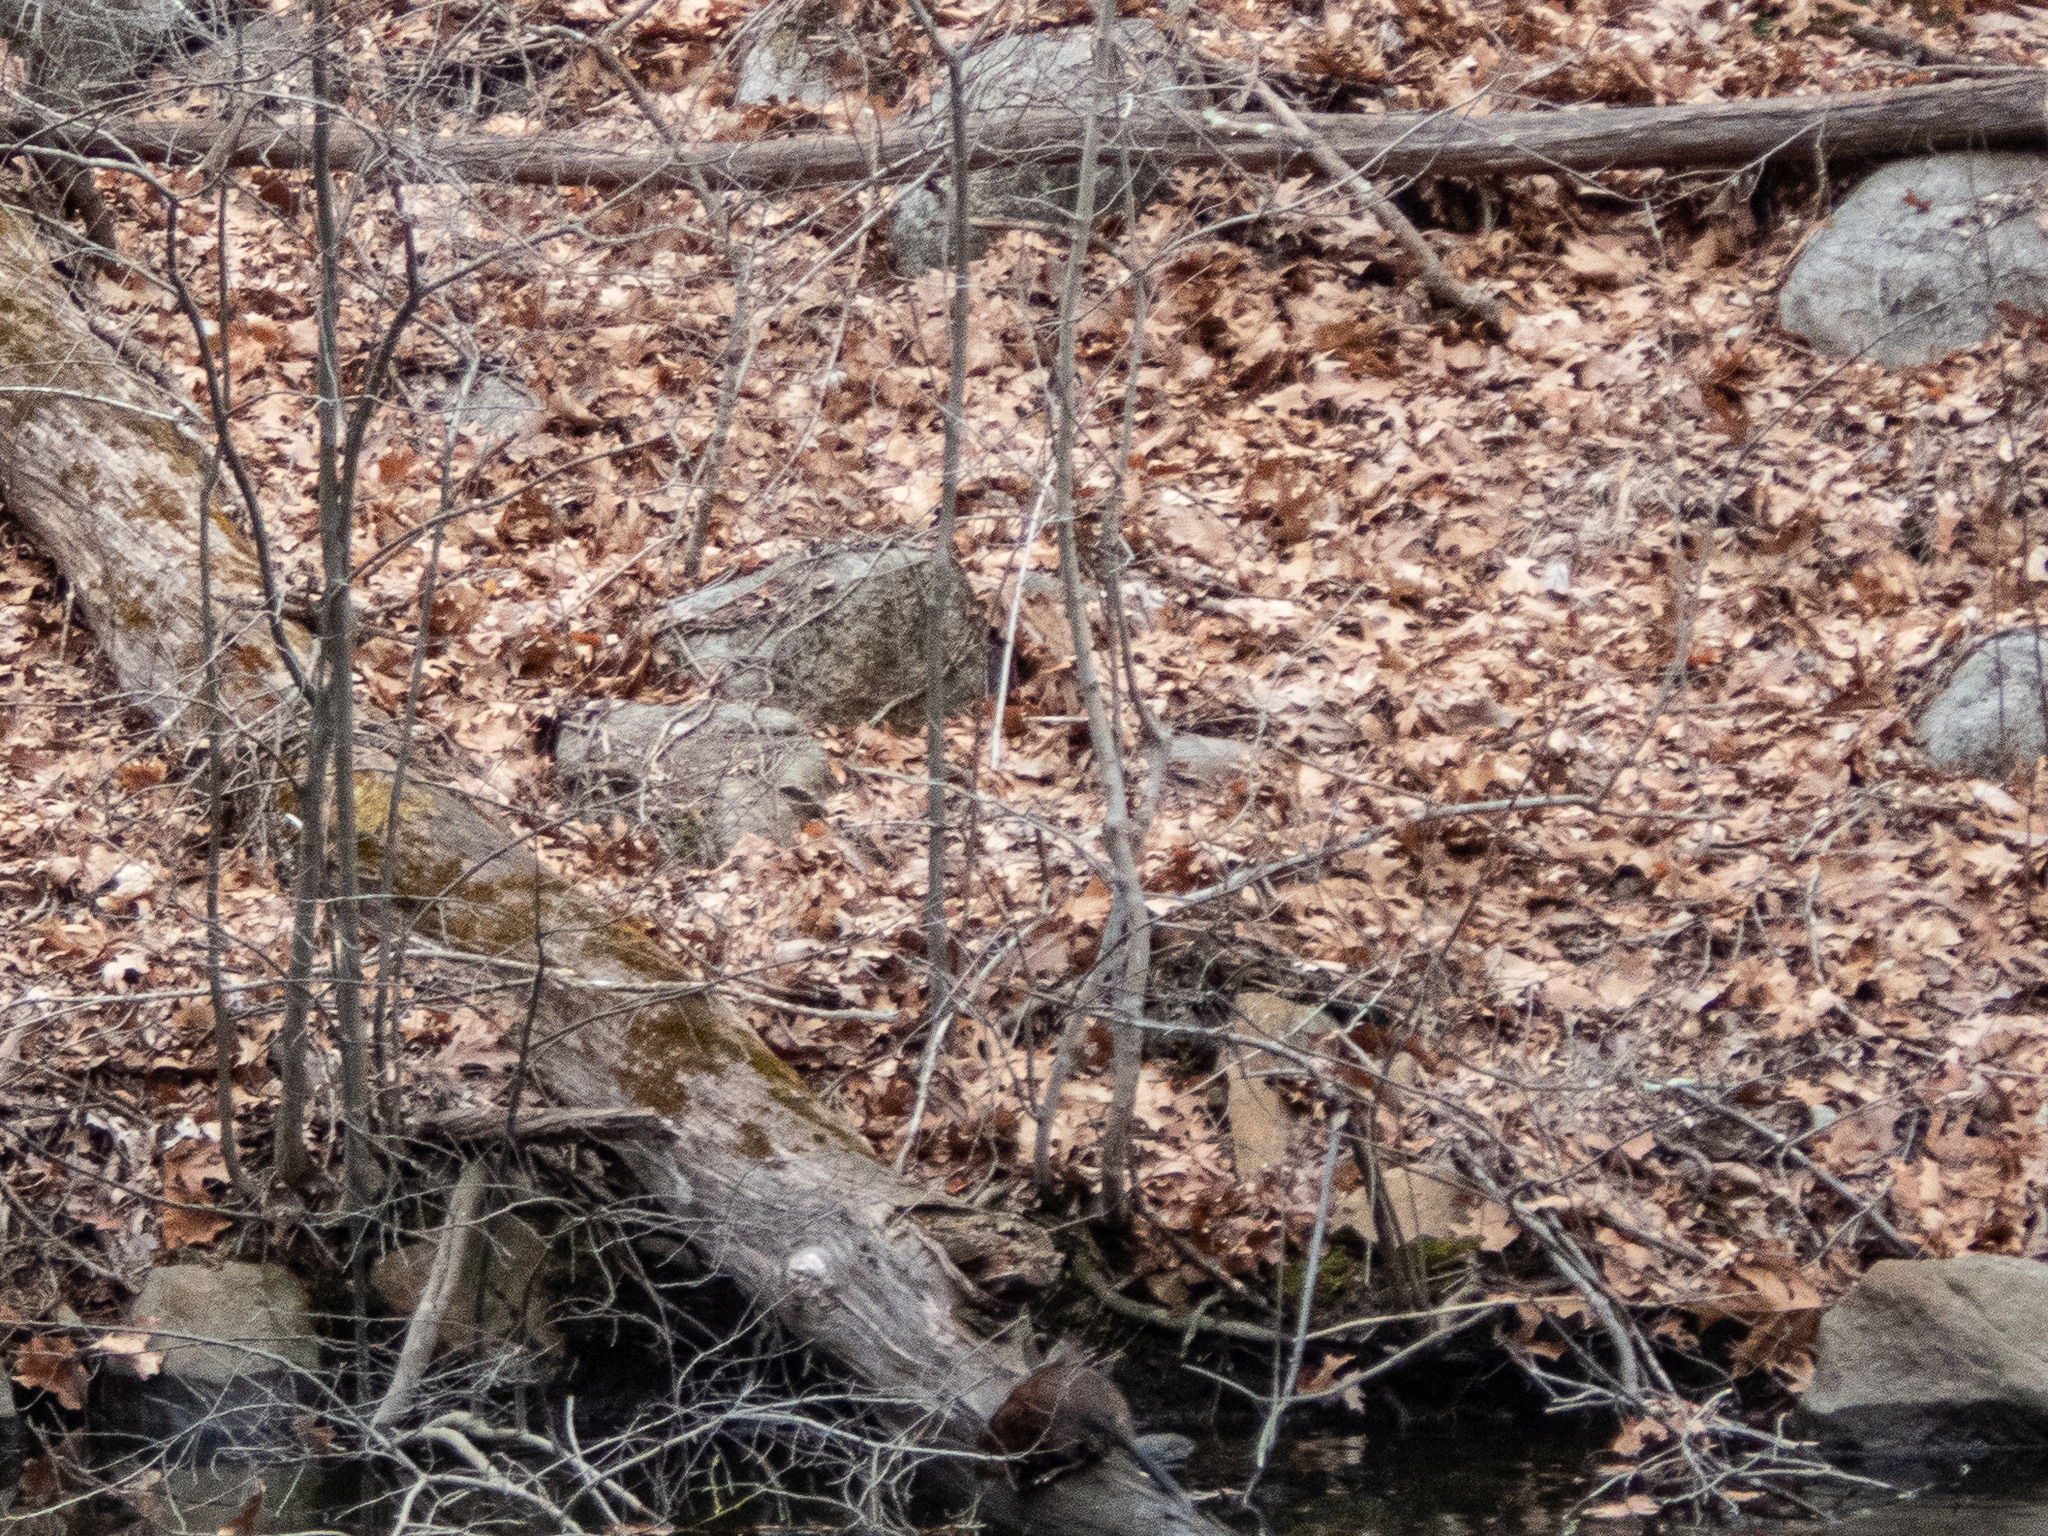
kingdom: Animalia
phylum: Chordata
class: Mammalia
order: Rodentia
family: Cricetidae
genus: Ondatra
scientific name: Ondatra zibethicus
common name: Muskrat
